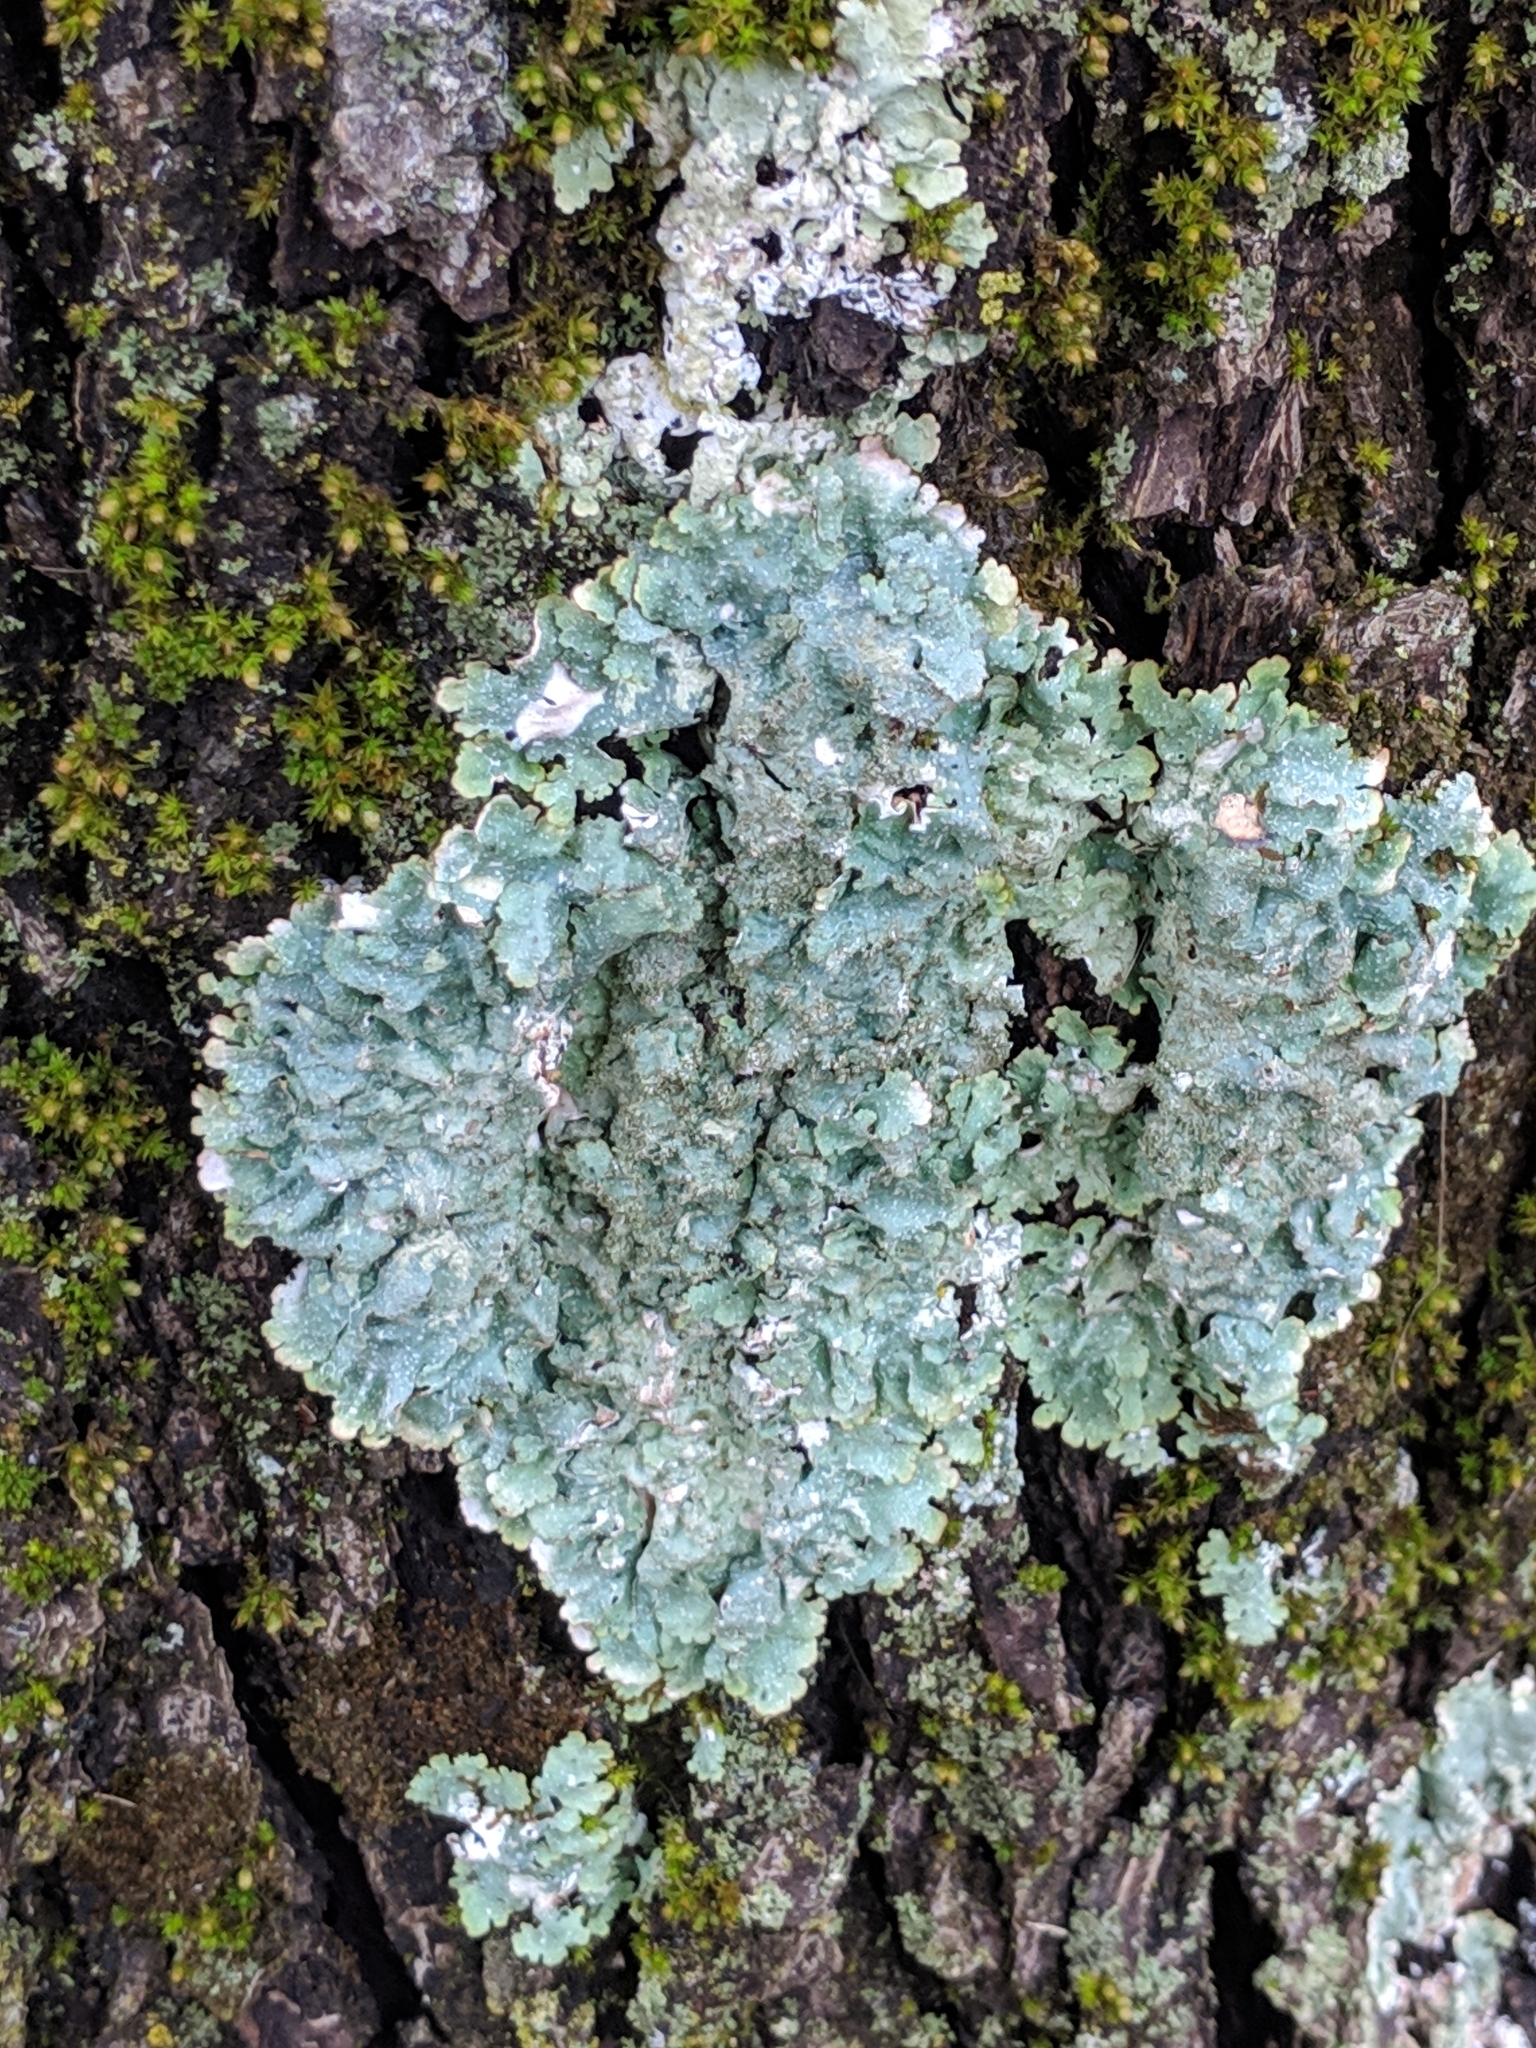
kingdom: Fungi
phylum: Ascomycota
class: Lecanoromycetes
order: Lecanorales
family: Parmeliaceae
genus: Punctelia
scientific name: Punctelia rudecta
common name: Rough speckled shield lichen
